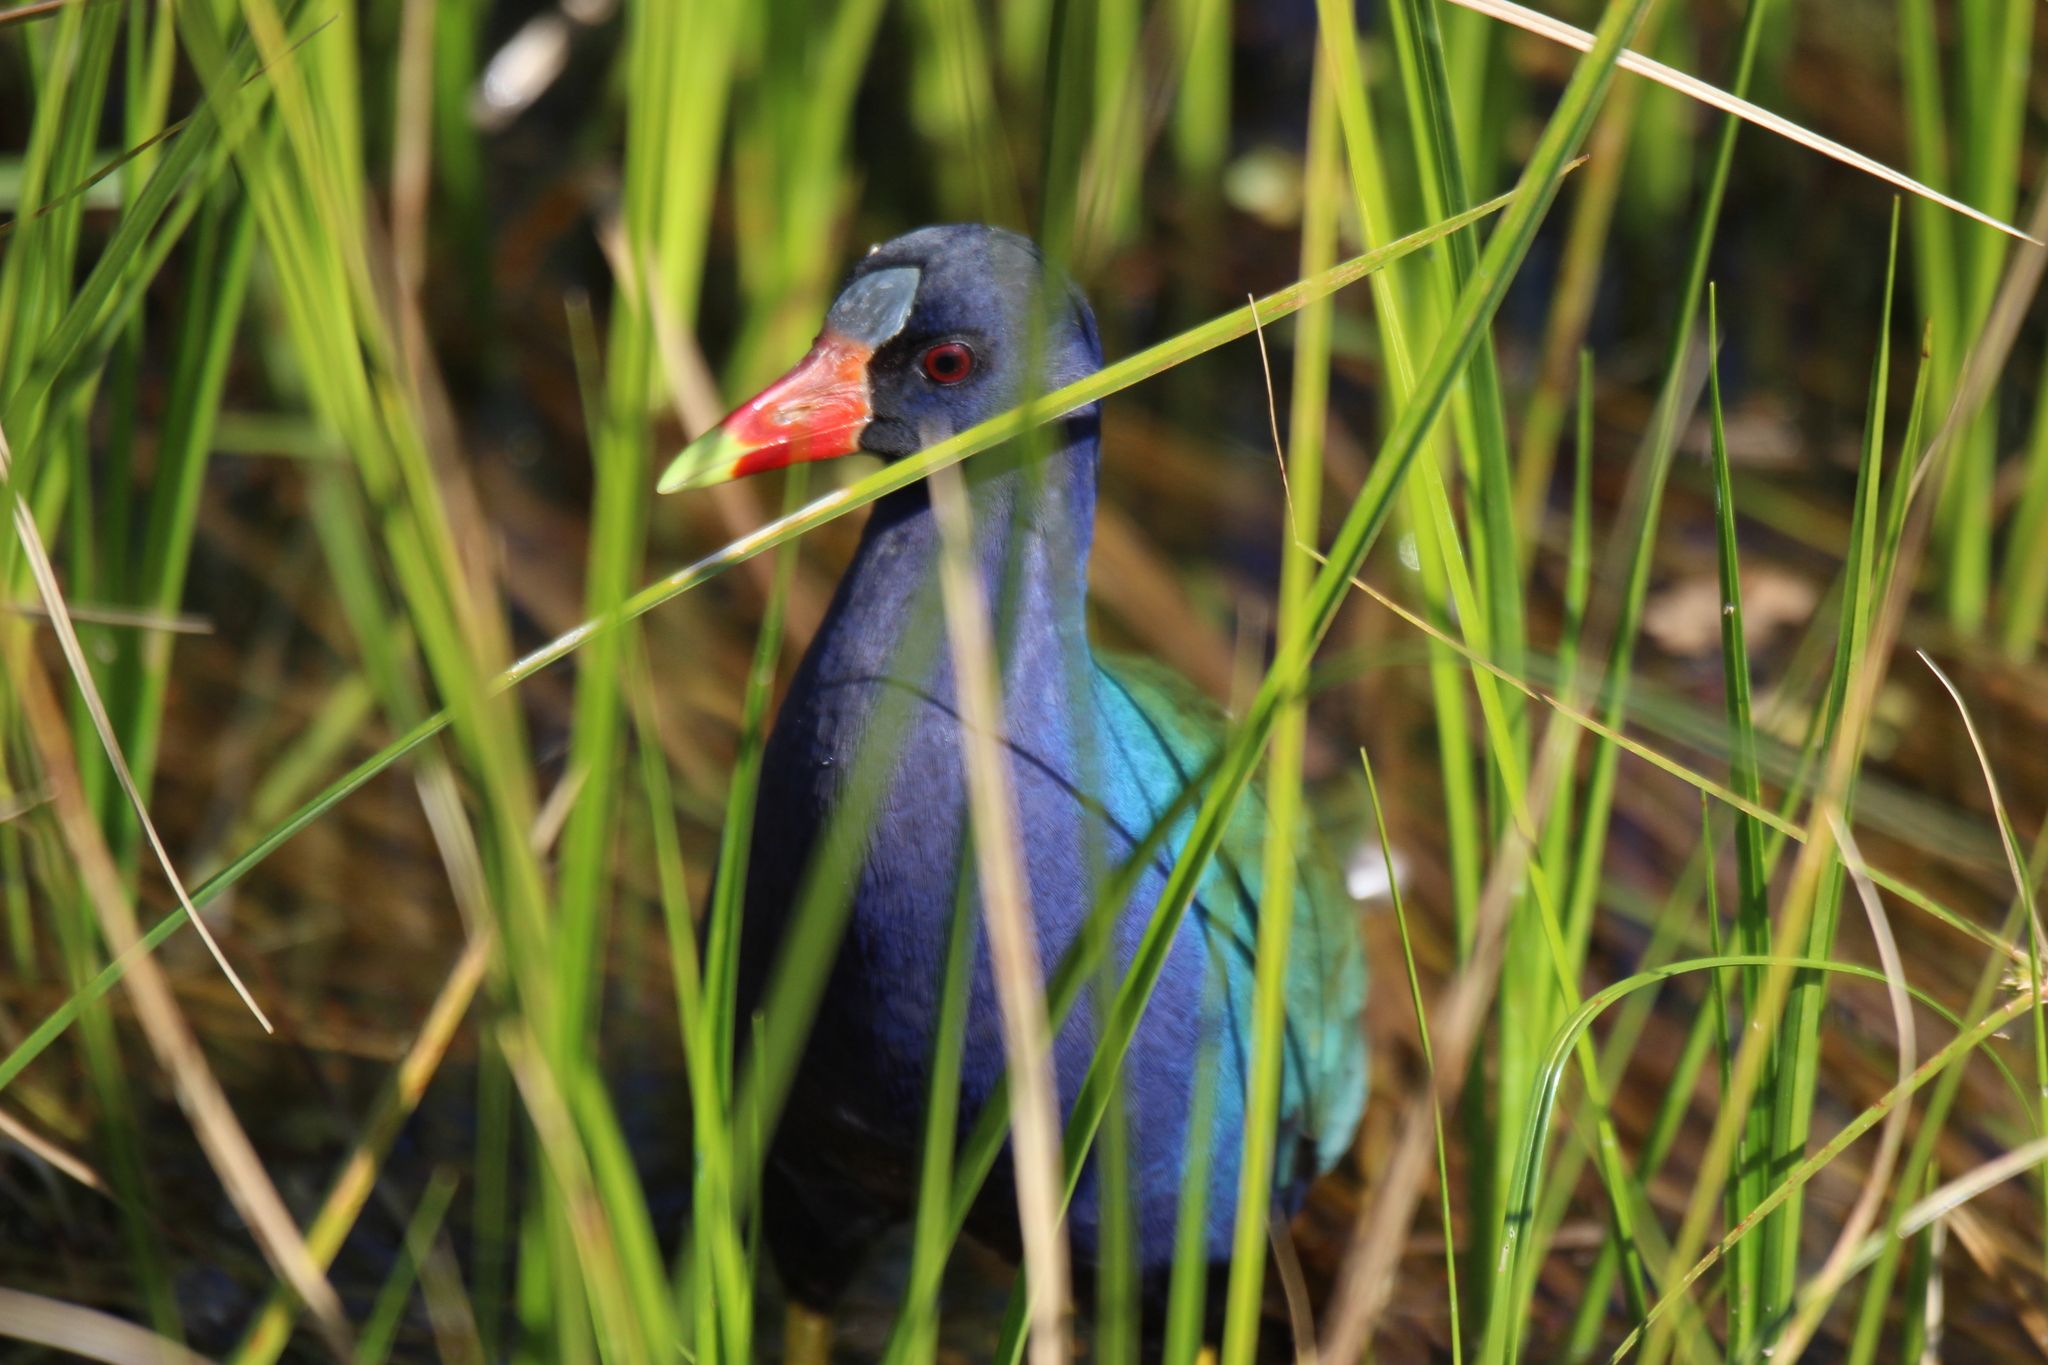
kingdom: Animalia
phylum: Chordata
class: Aves
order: Gruiformes
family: Rallidae
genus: Porphyrio
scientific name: Porphyrio martinica
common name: Purple gallinule
